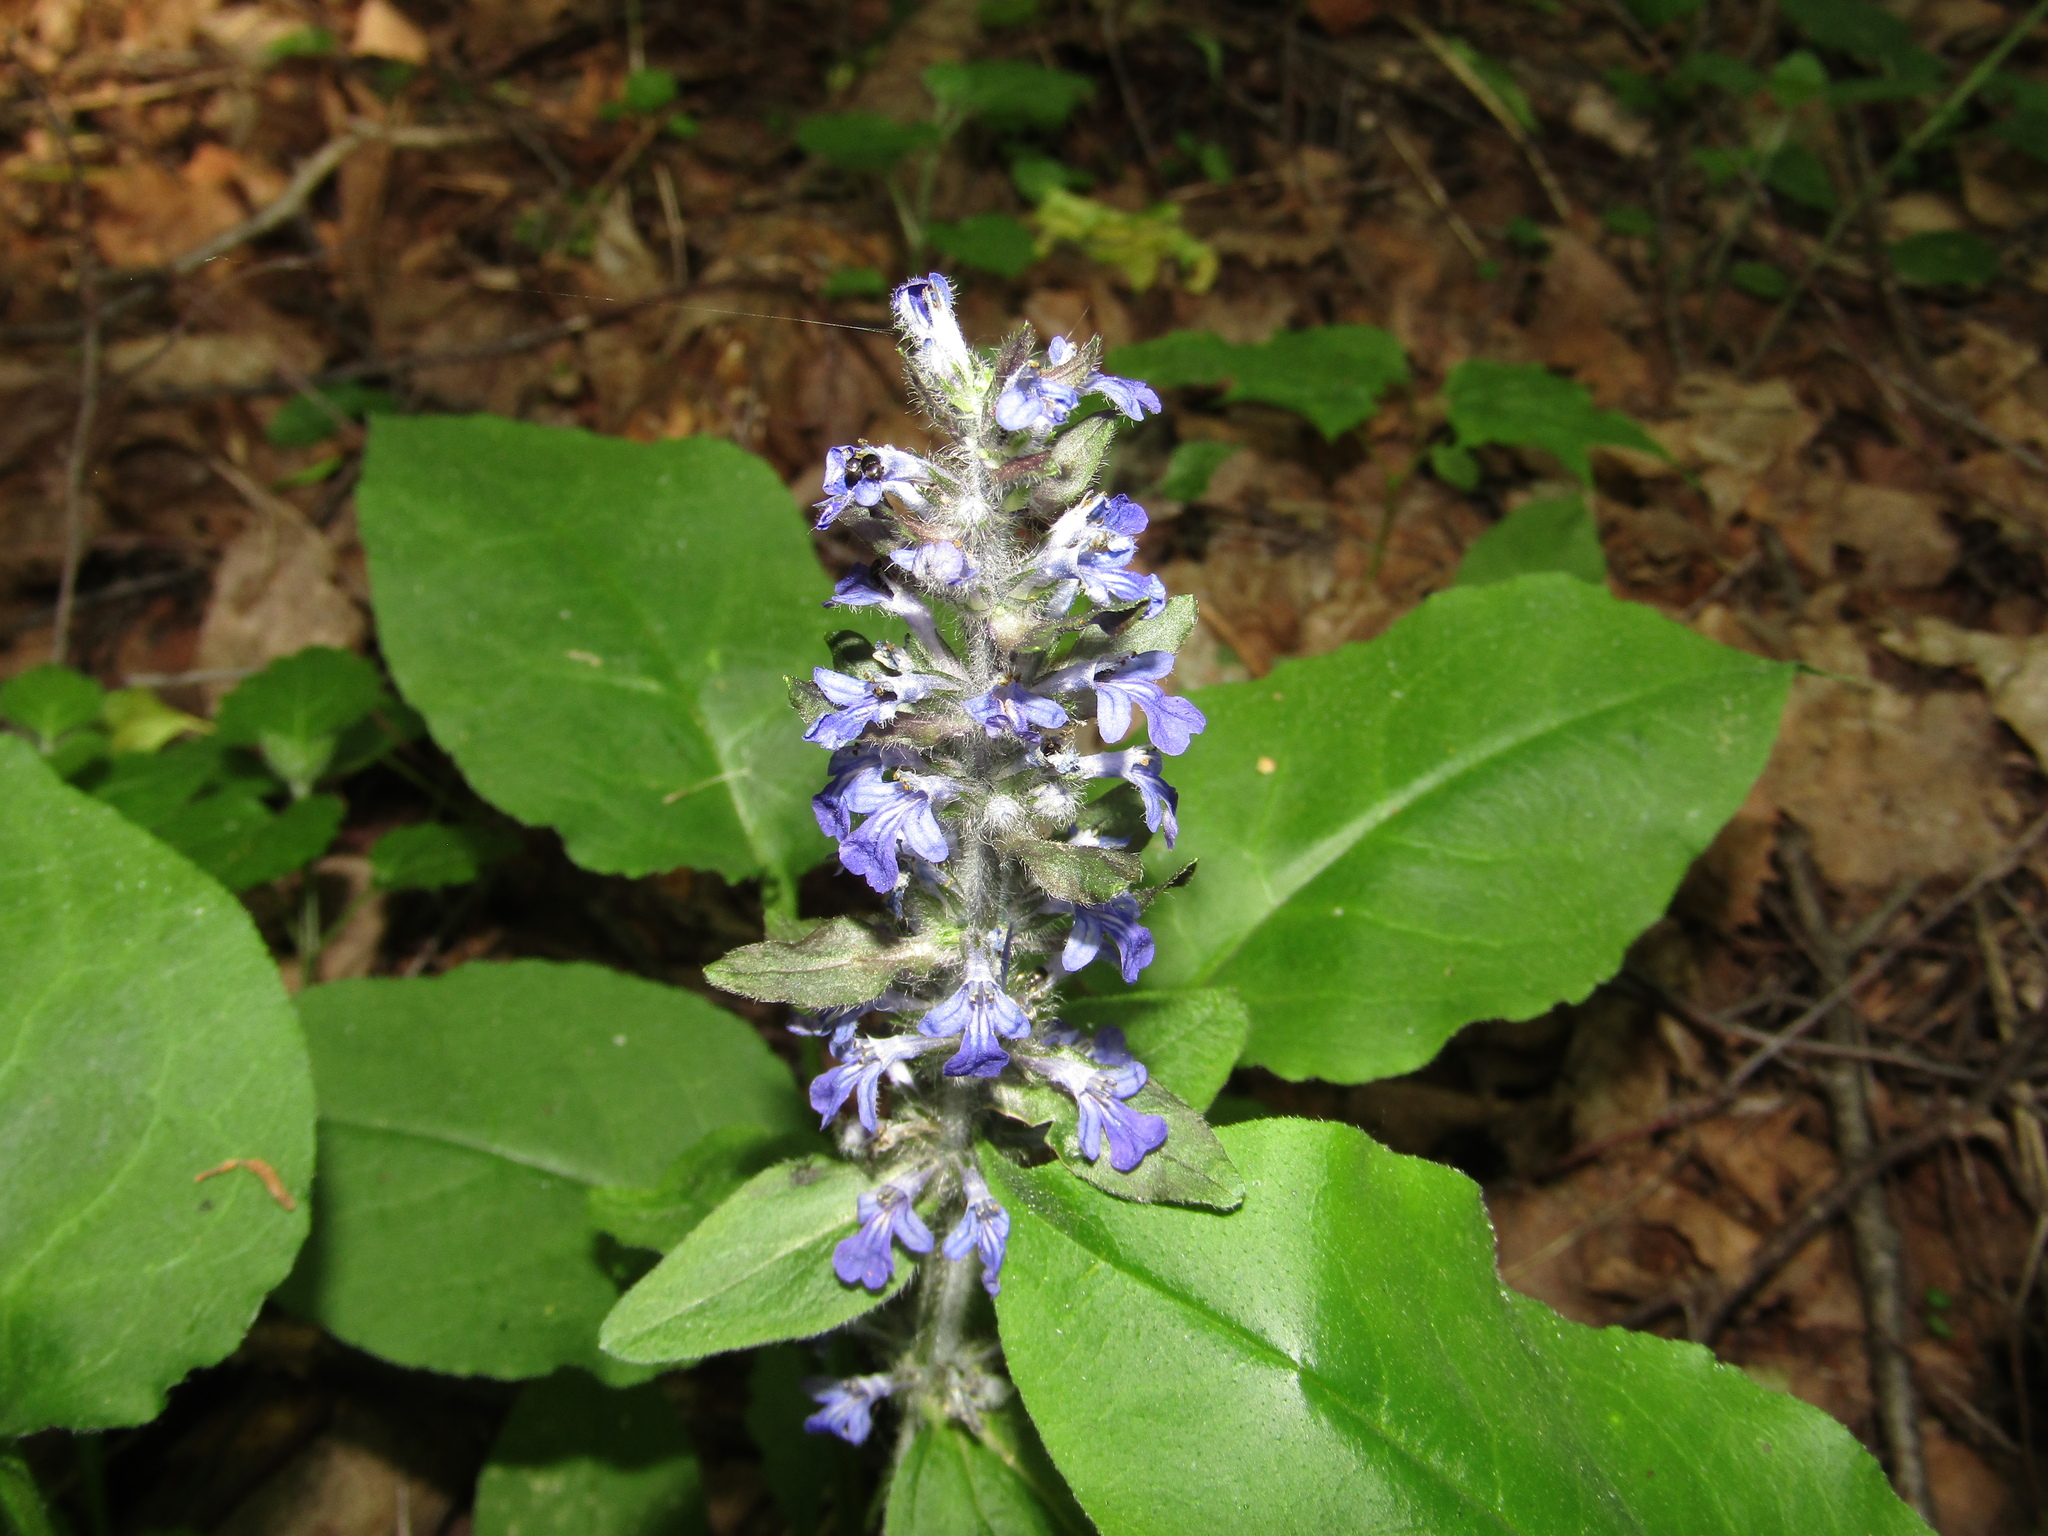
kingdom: Plantae
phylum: Tracheophyta
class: Magnoliopsida
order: Lamiales
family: Lamiaceae
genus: Ajuga
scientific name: Ajuga reptans
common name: Bugle
